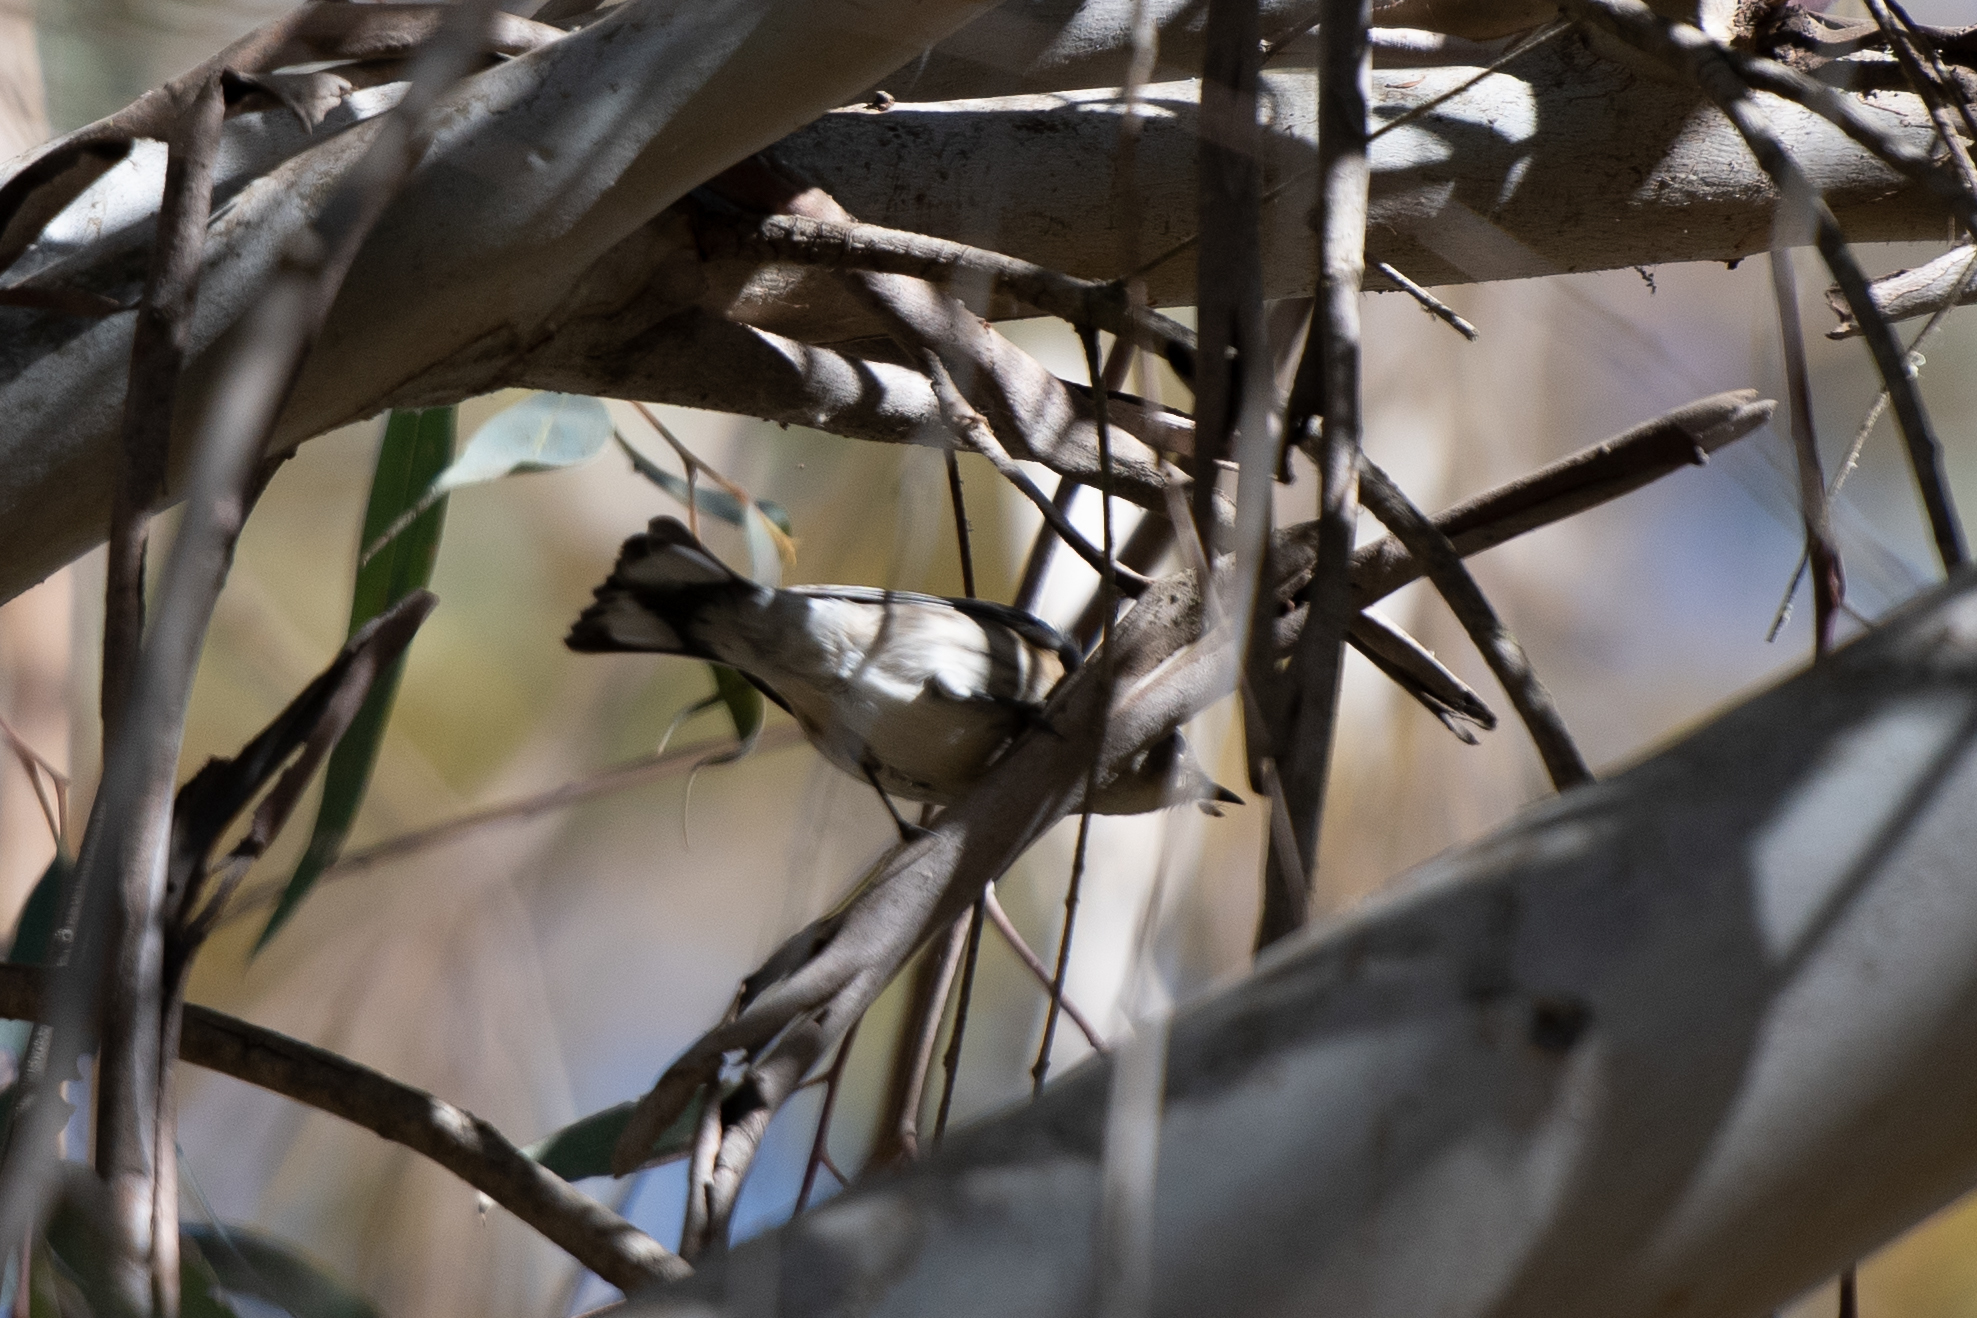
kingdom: Animalia
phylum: Chordata
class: Aves
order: Passeriformes
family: Parulidae
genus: Setophaga
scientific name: Setophaga coronata
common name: Myrtle warbler
